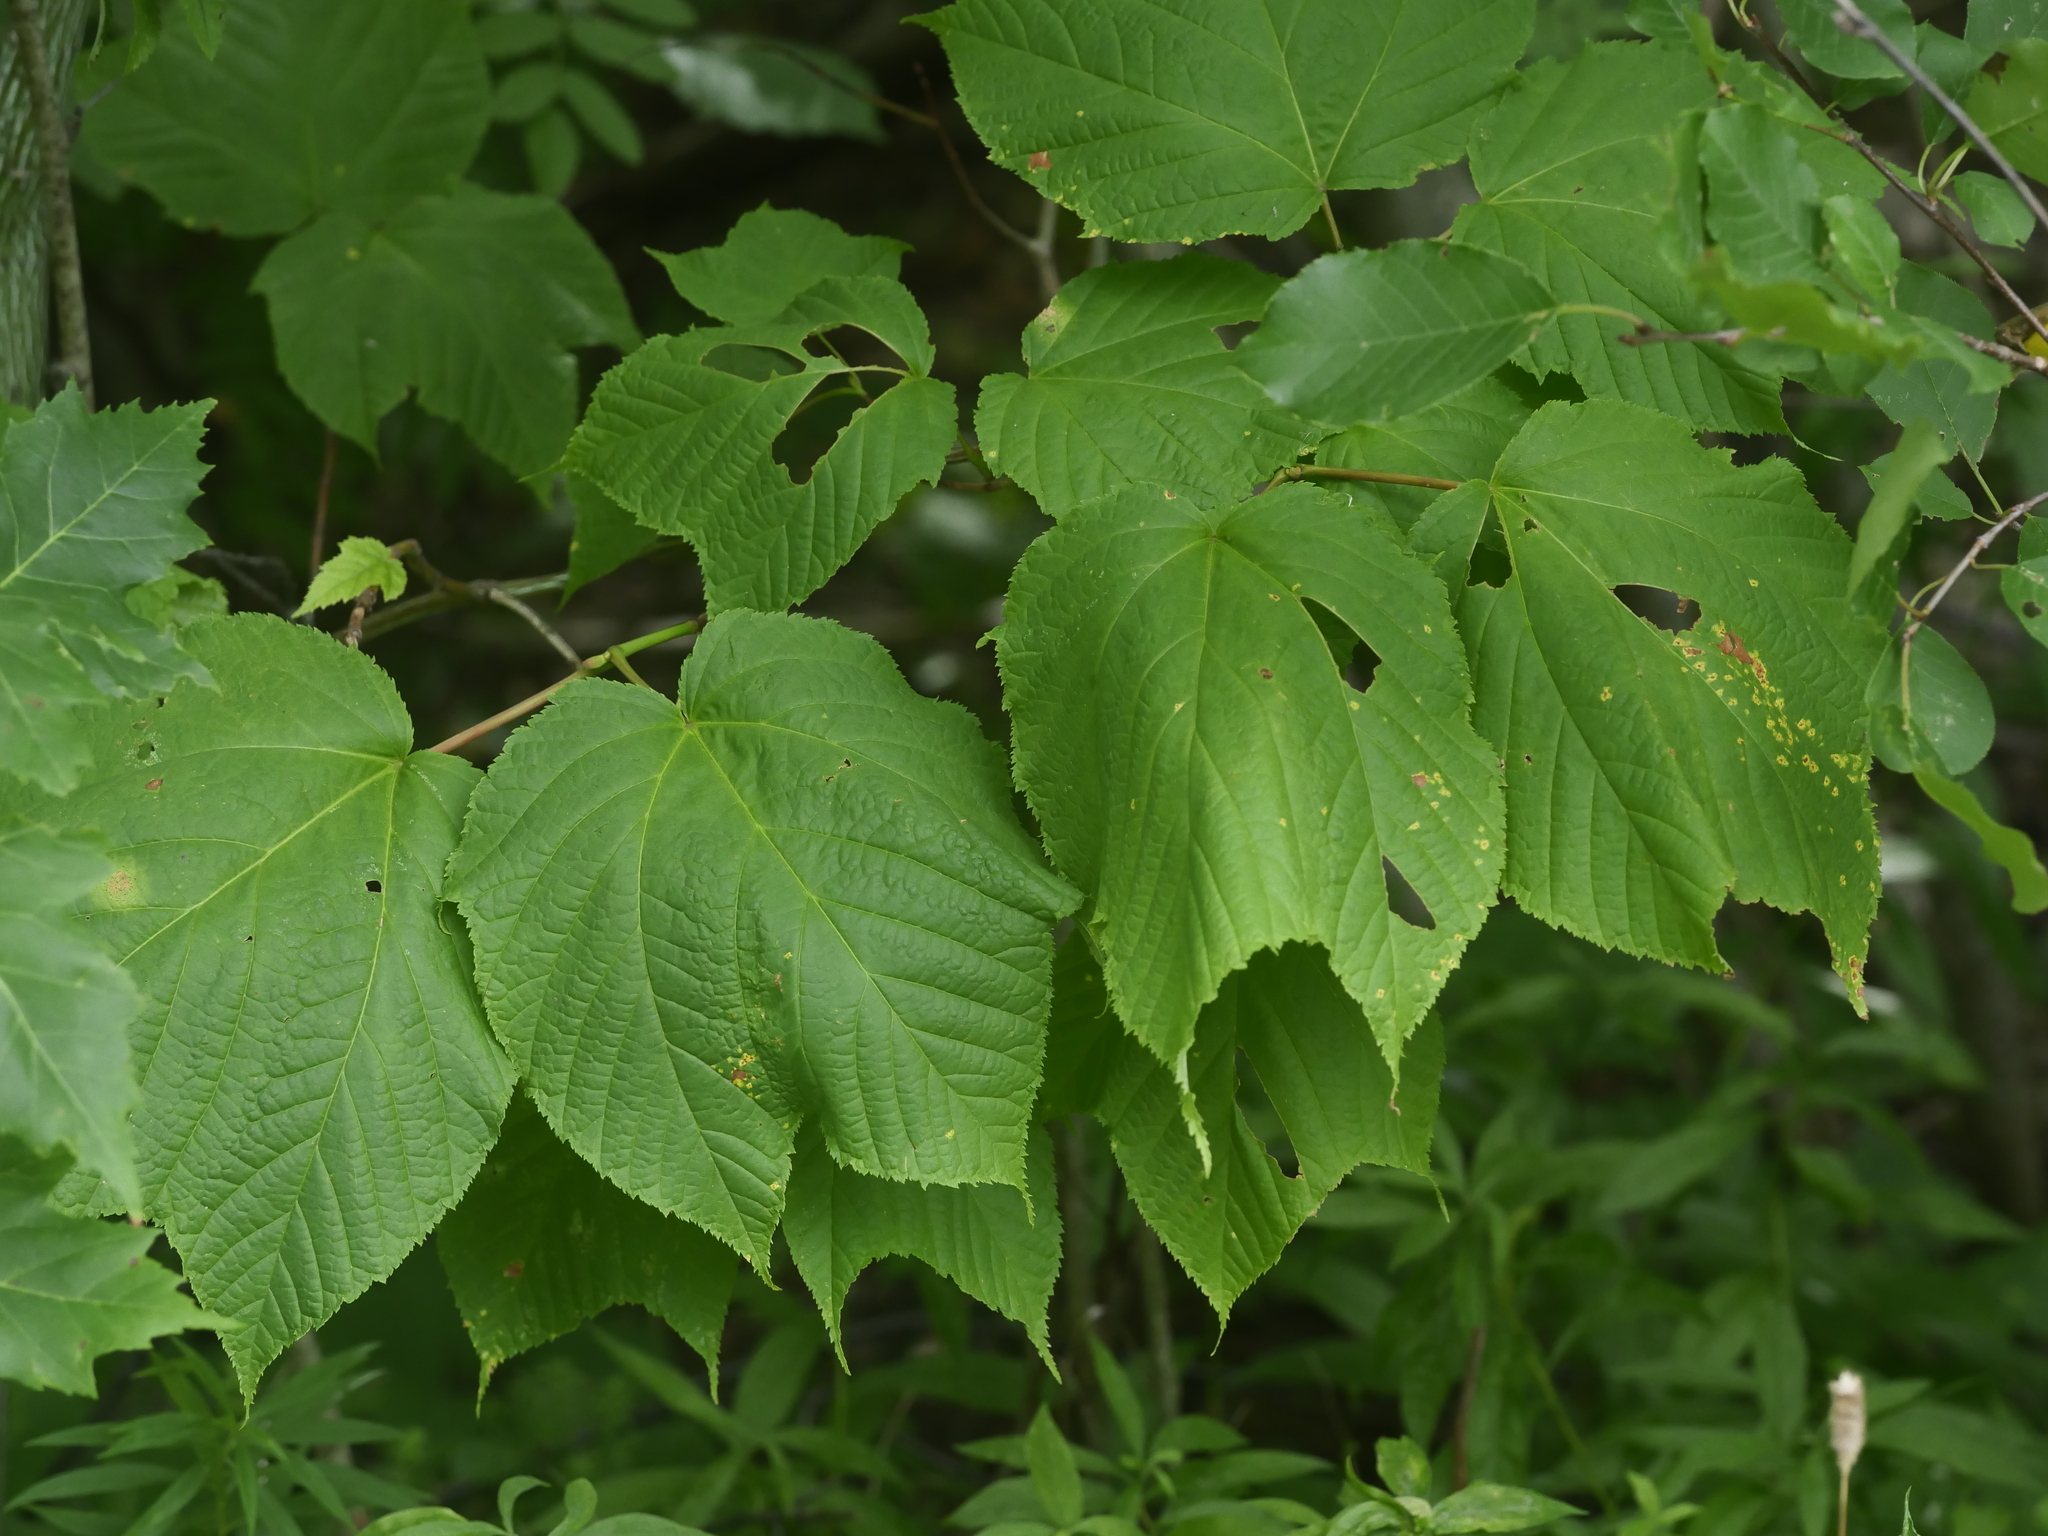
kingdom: Plantae
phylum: Tracheophyta
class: Magnoliopsida
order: Sapindales
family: Sapindaceae
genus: Acer
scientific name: Acer pensylvanicum
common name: Moosewood
